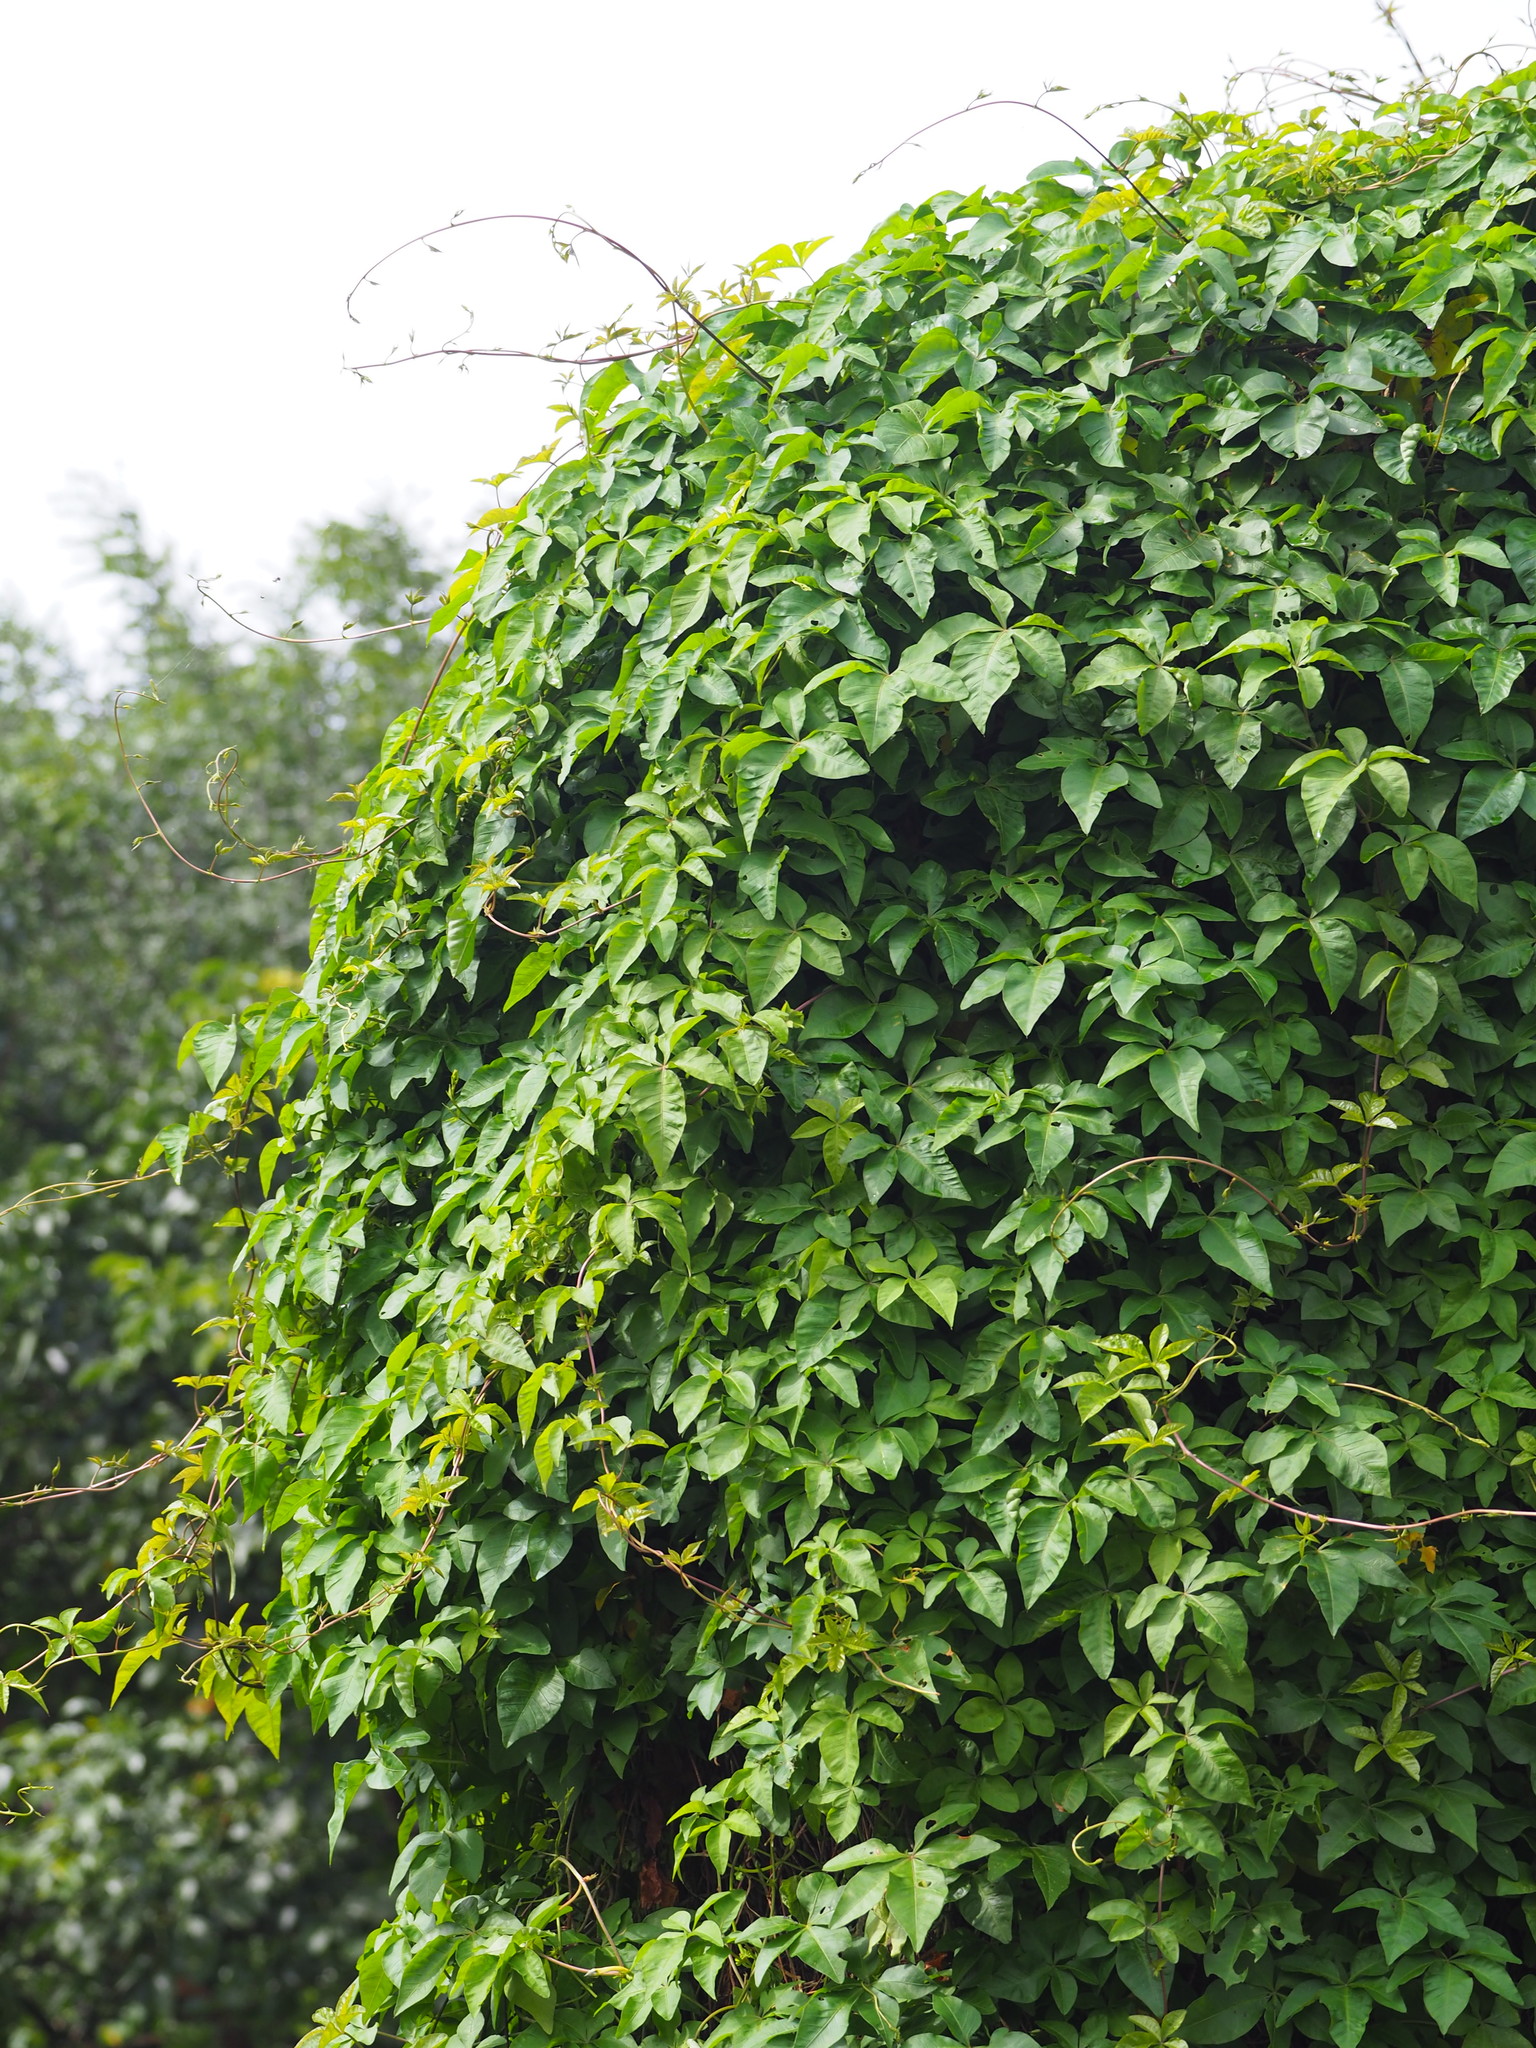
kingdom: Plantae
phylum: Tracheophyta
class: Magnoliopsida
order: Solanales
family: Convolvulaceae
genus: Ipomoea
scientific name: Ipomoea cairica
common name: Mile a minute vine
